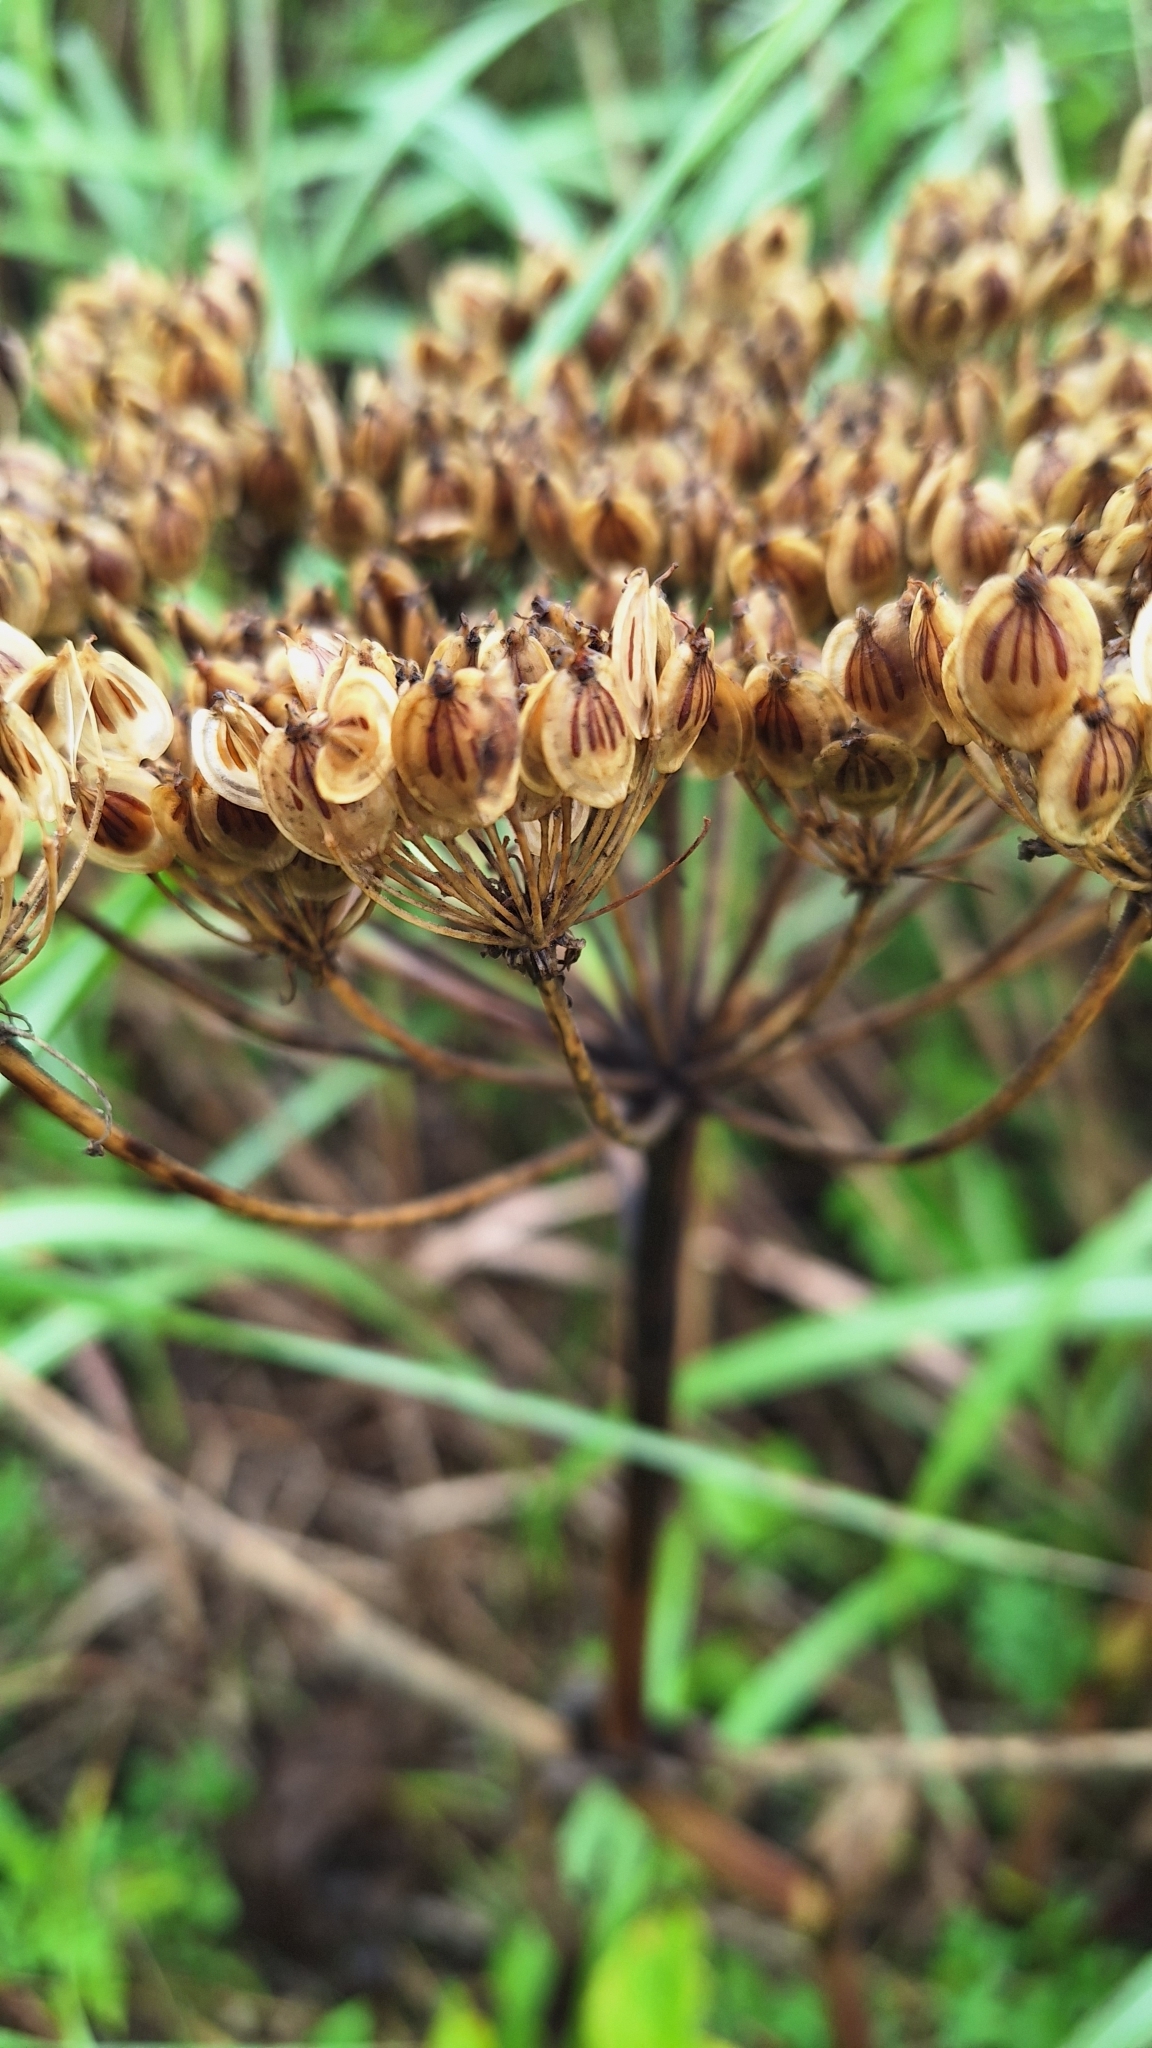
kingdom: Plantae
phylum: Tracheophyta
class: Magnoliopsida
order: Apiales
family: Apiaceae
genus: Heracleum
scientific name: Heracleum dissectum
